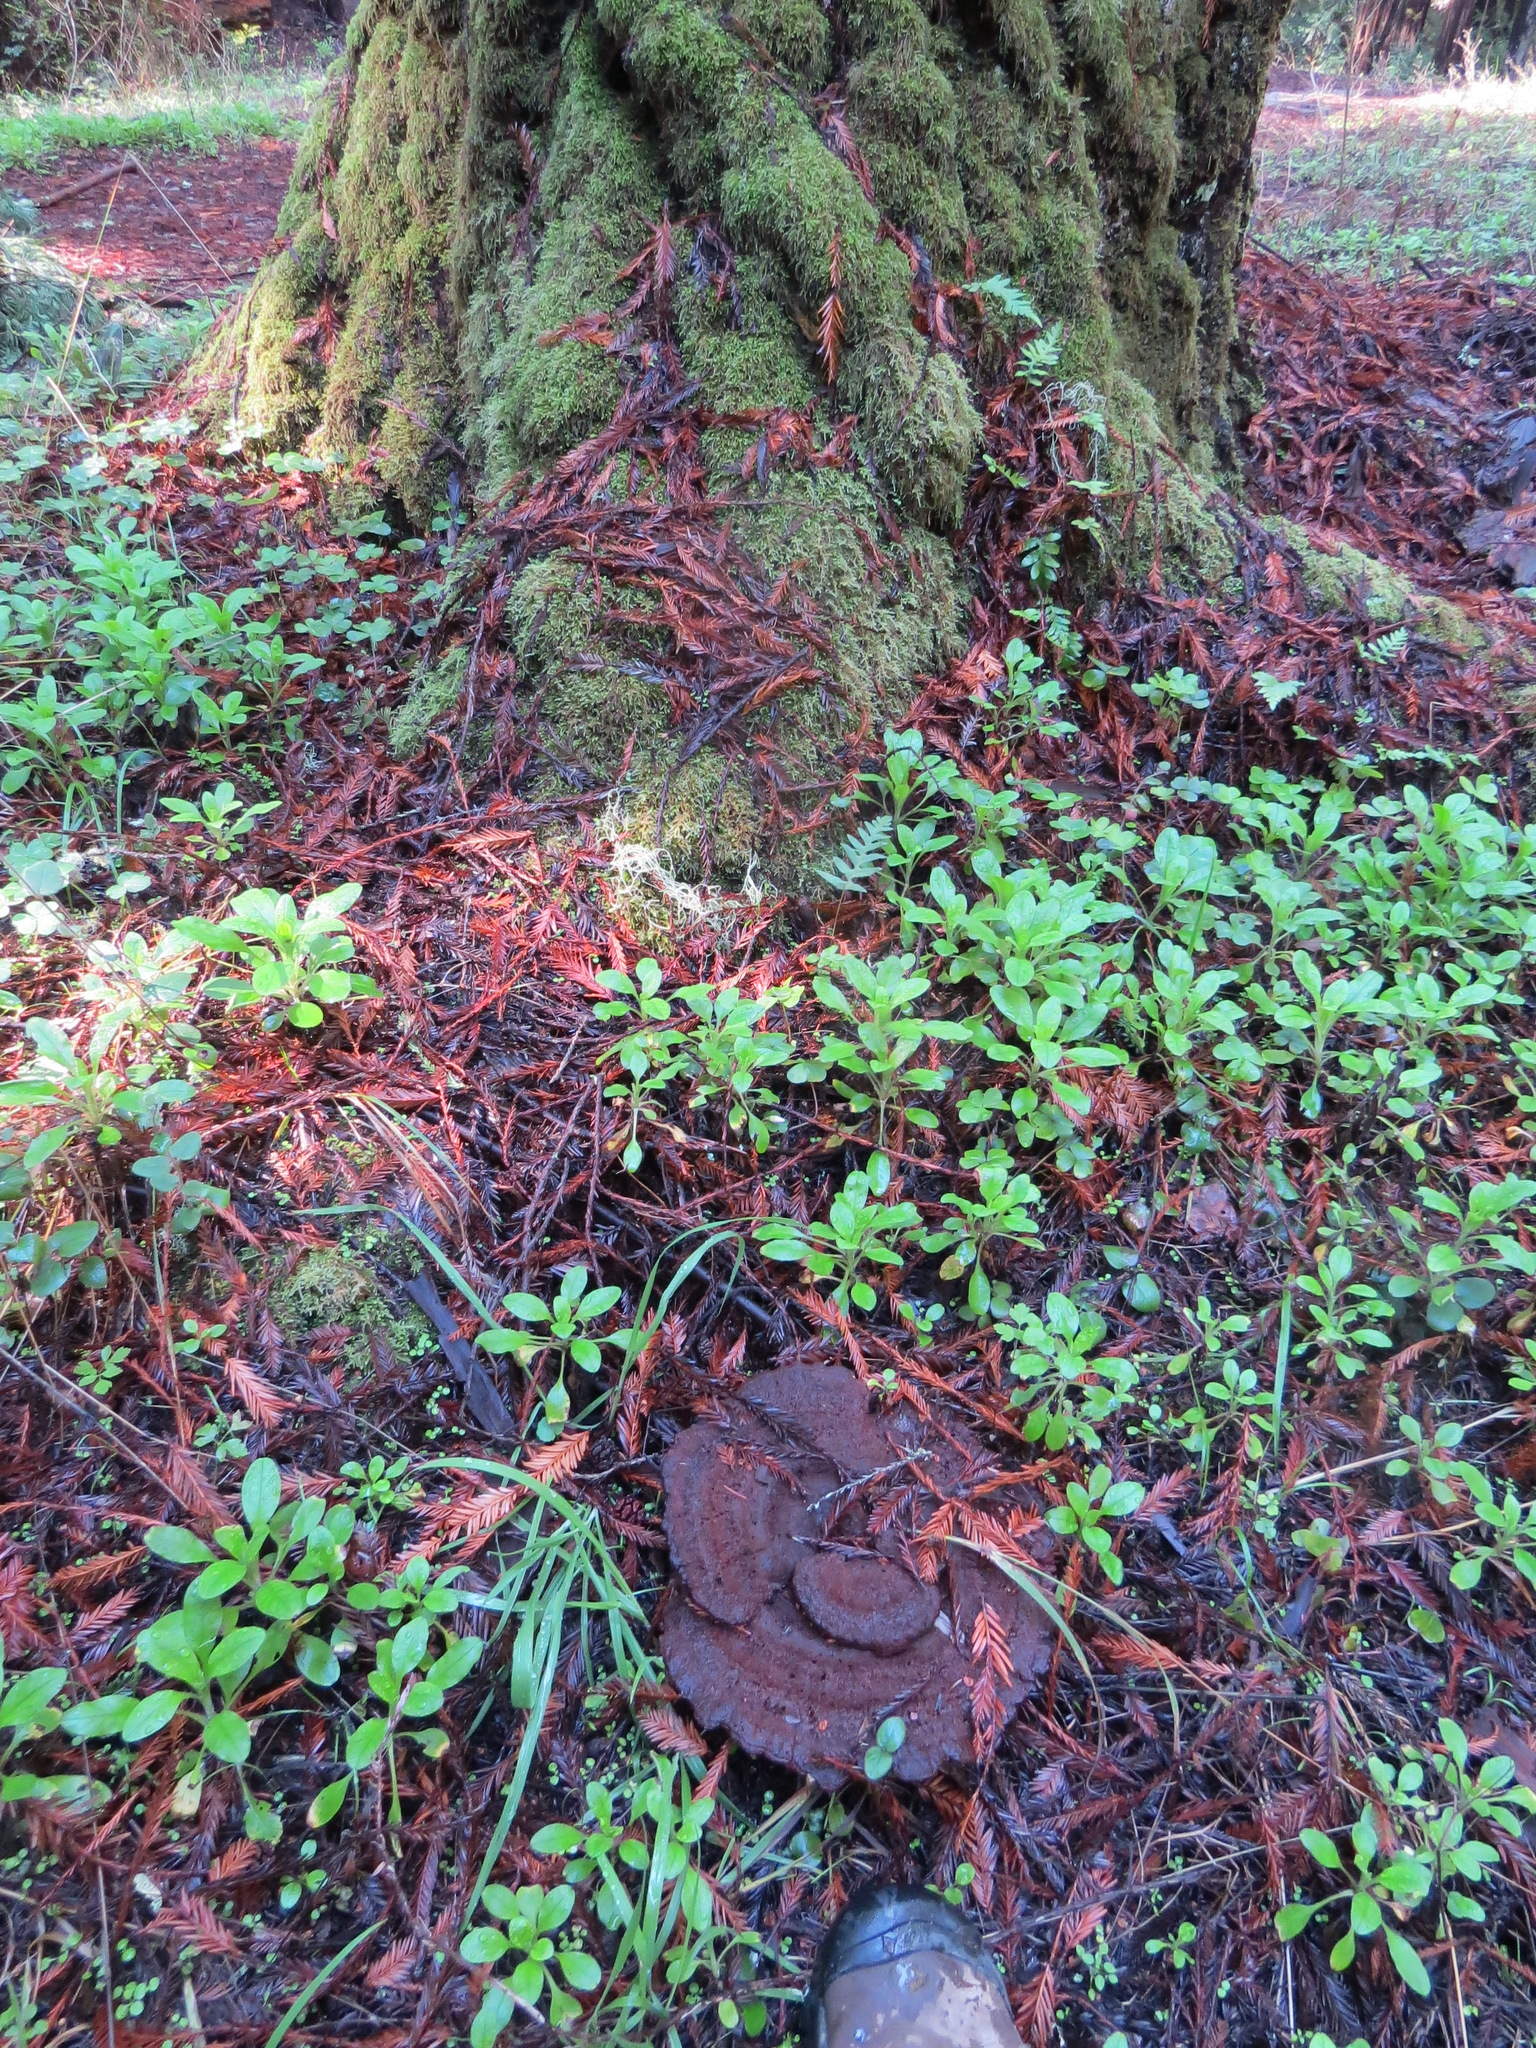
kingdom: Fungi
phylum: Basidiomycota
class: Agaricomycetes
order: Polyporales
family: Laetiporaceae
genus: Phaeolus
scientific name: Phaeolus schweinitzii
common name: Dyer's mazegill
